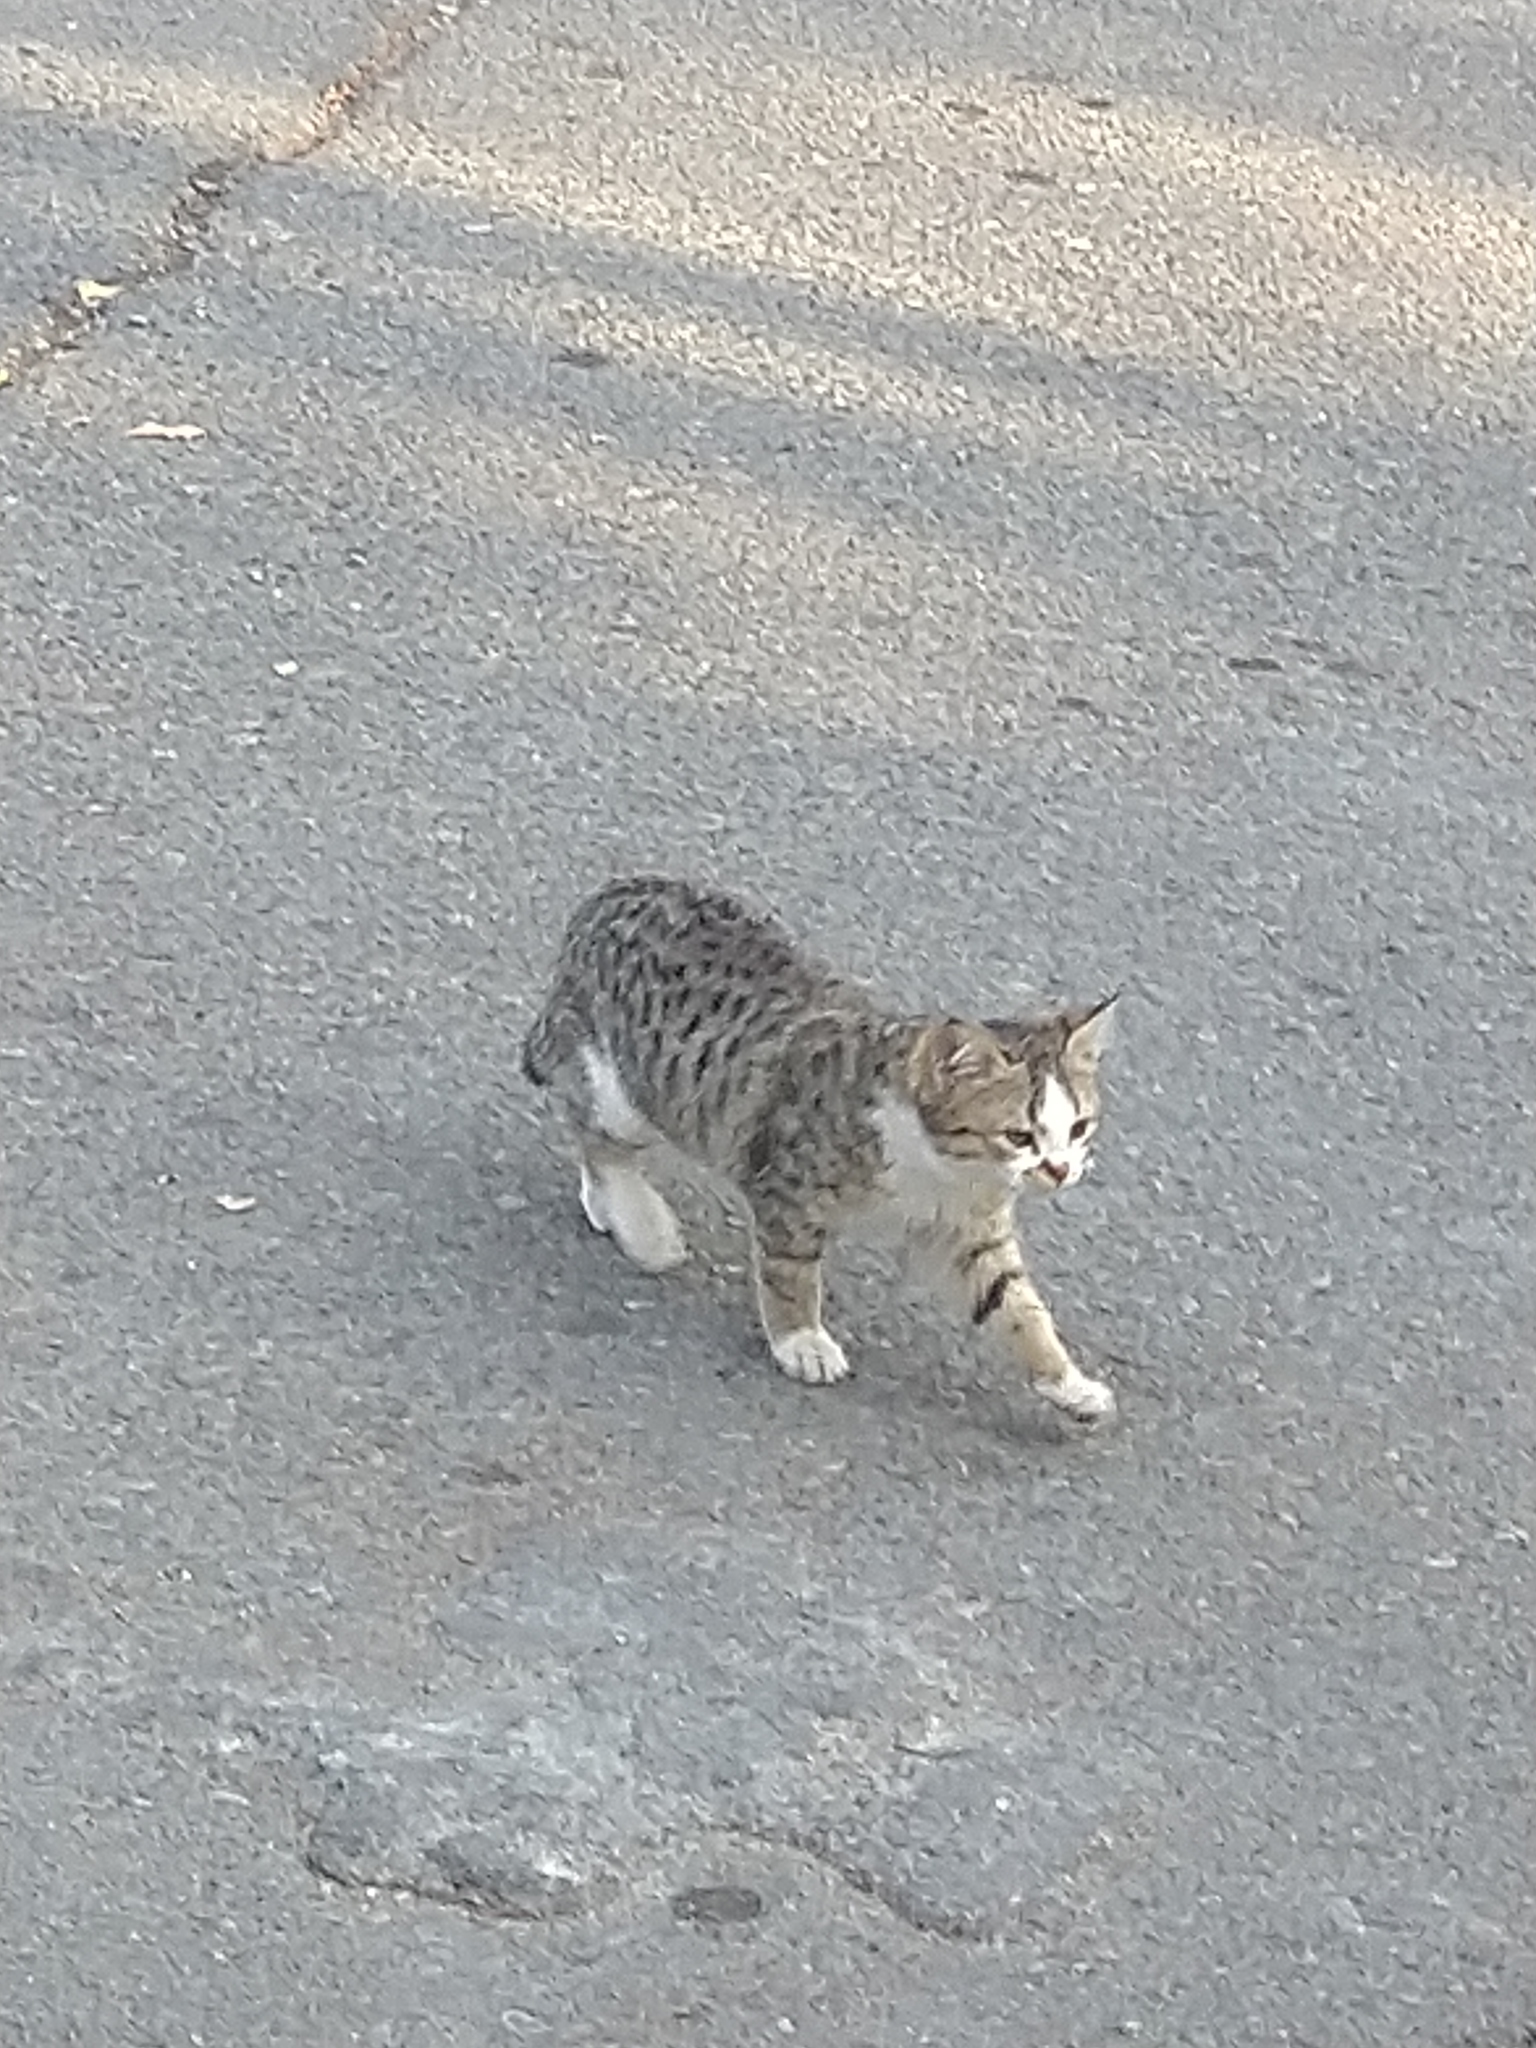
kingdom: Animalia
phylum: Chordata
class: Mammalia
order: Carnivora
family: Felidae
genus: Felis
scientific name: Felis catus
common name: Domestic cat
